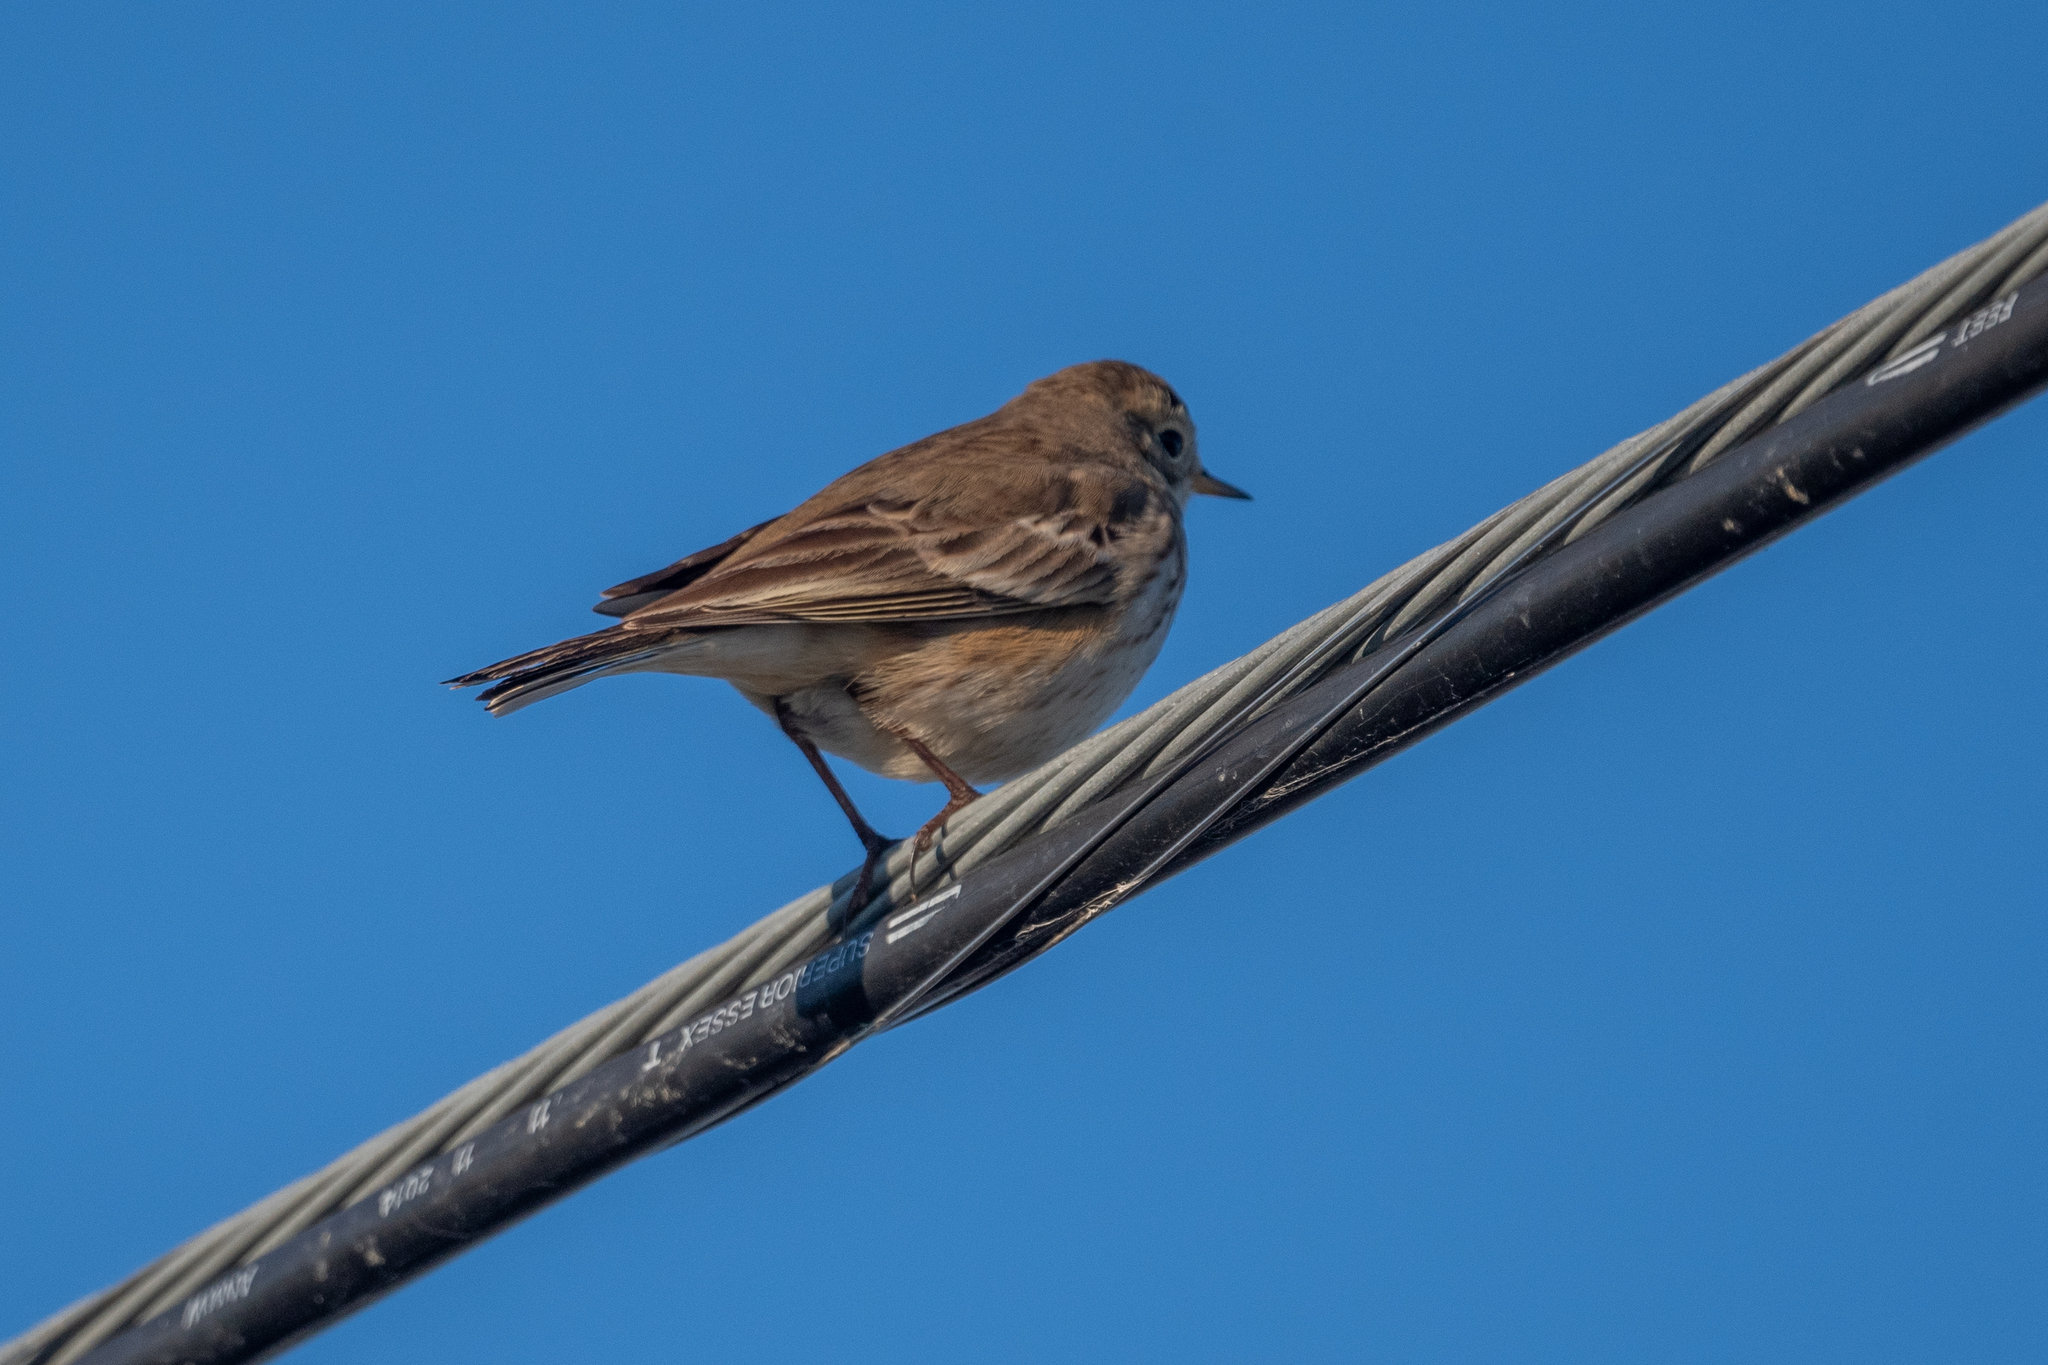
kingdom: Animalia
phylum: Chordata
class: Aves
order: Passeriformes
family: Motacillidae
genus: Anthus
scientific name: Anthus rubescens
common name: Buff-bellied pipit
